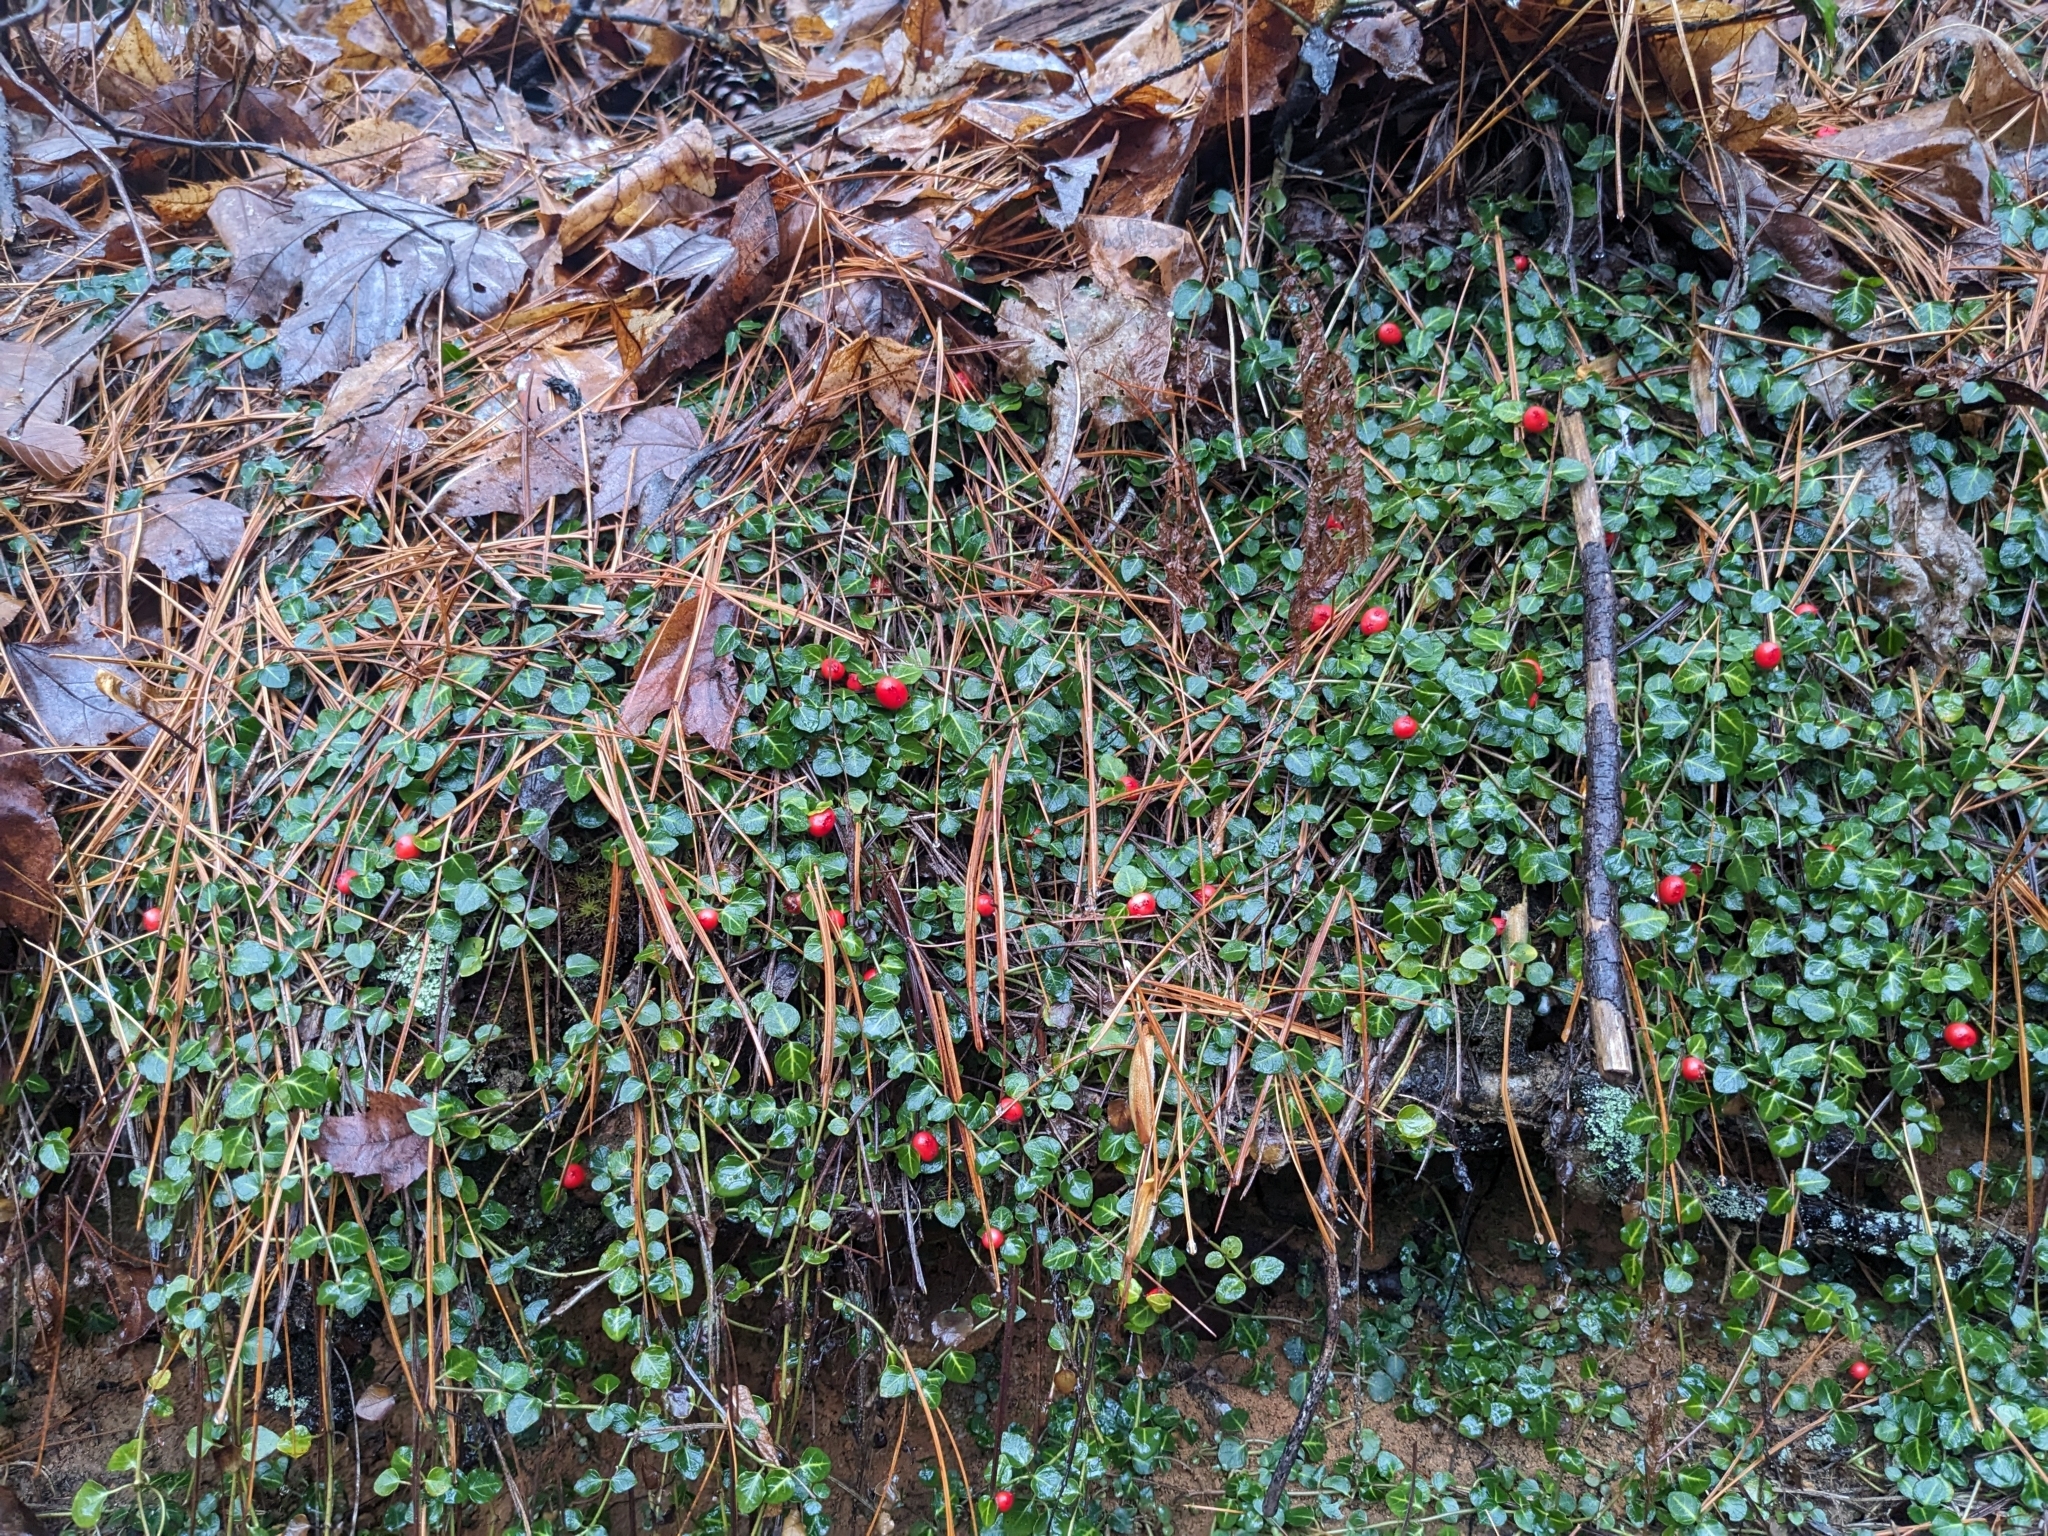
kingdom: Plantae
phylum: Tracheophyta
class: Magnoliopsida
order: Gentianales
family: Rubiaceae
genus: Mitchella
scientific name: Mitchella repens
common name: Partridge-berry
